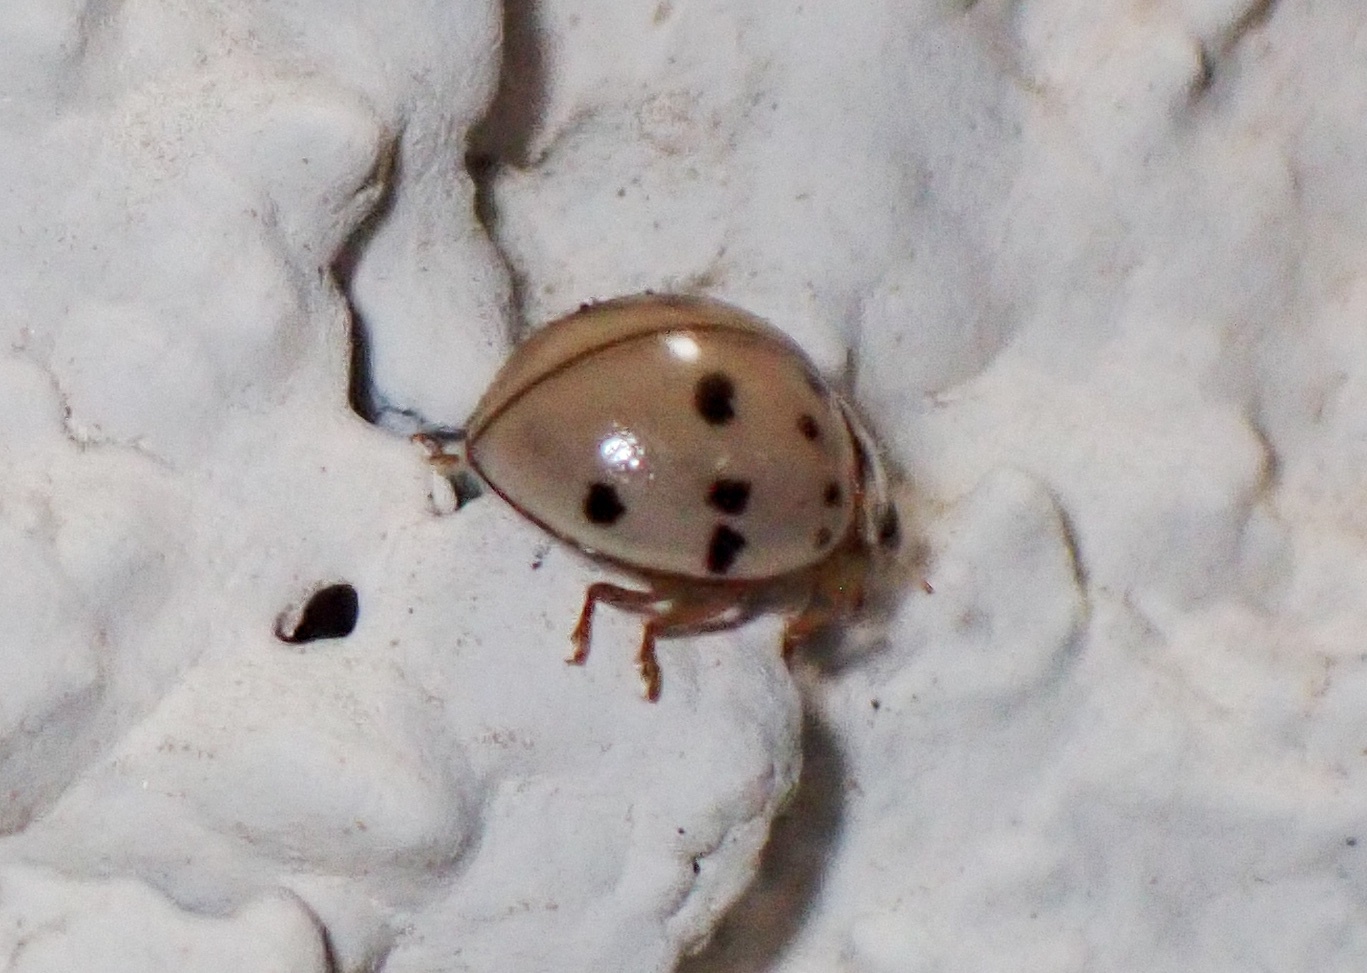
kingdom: Animalia
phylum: Arthropoda
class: Insecta
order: Coleoptera
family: Coccinellidae
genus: Olla
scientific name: Olla v-nigrum
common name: Ashy gray lady beetle
